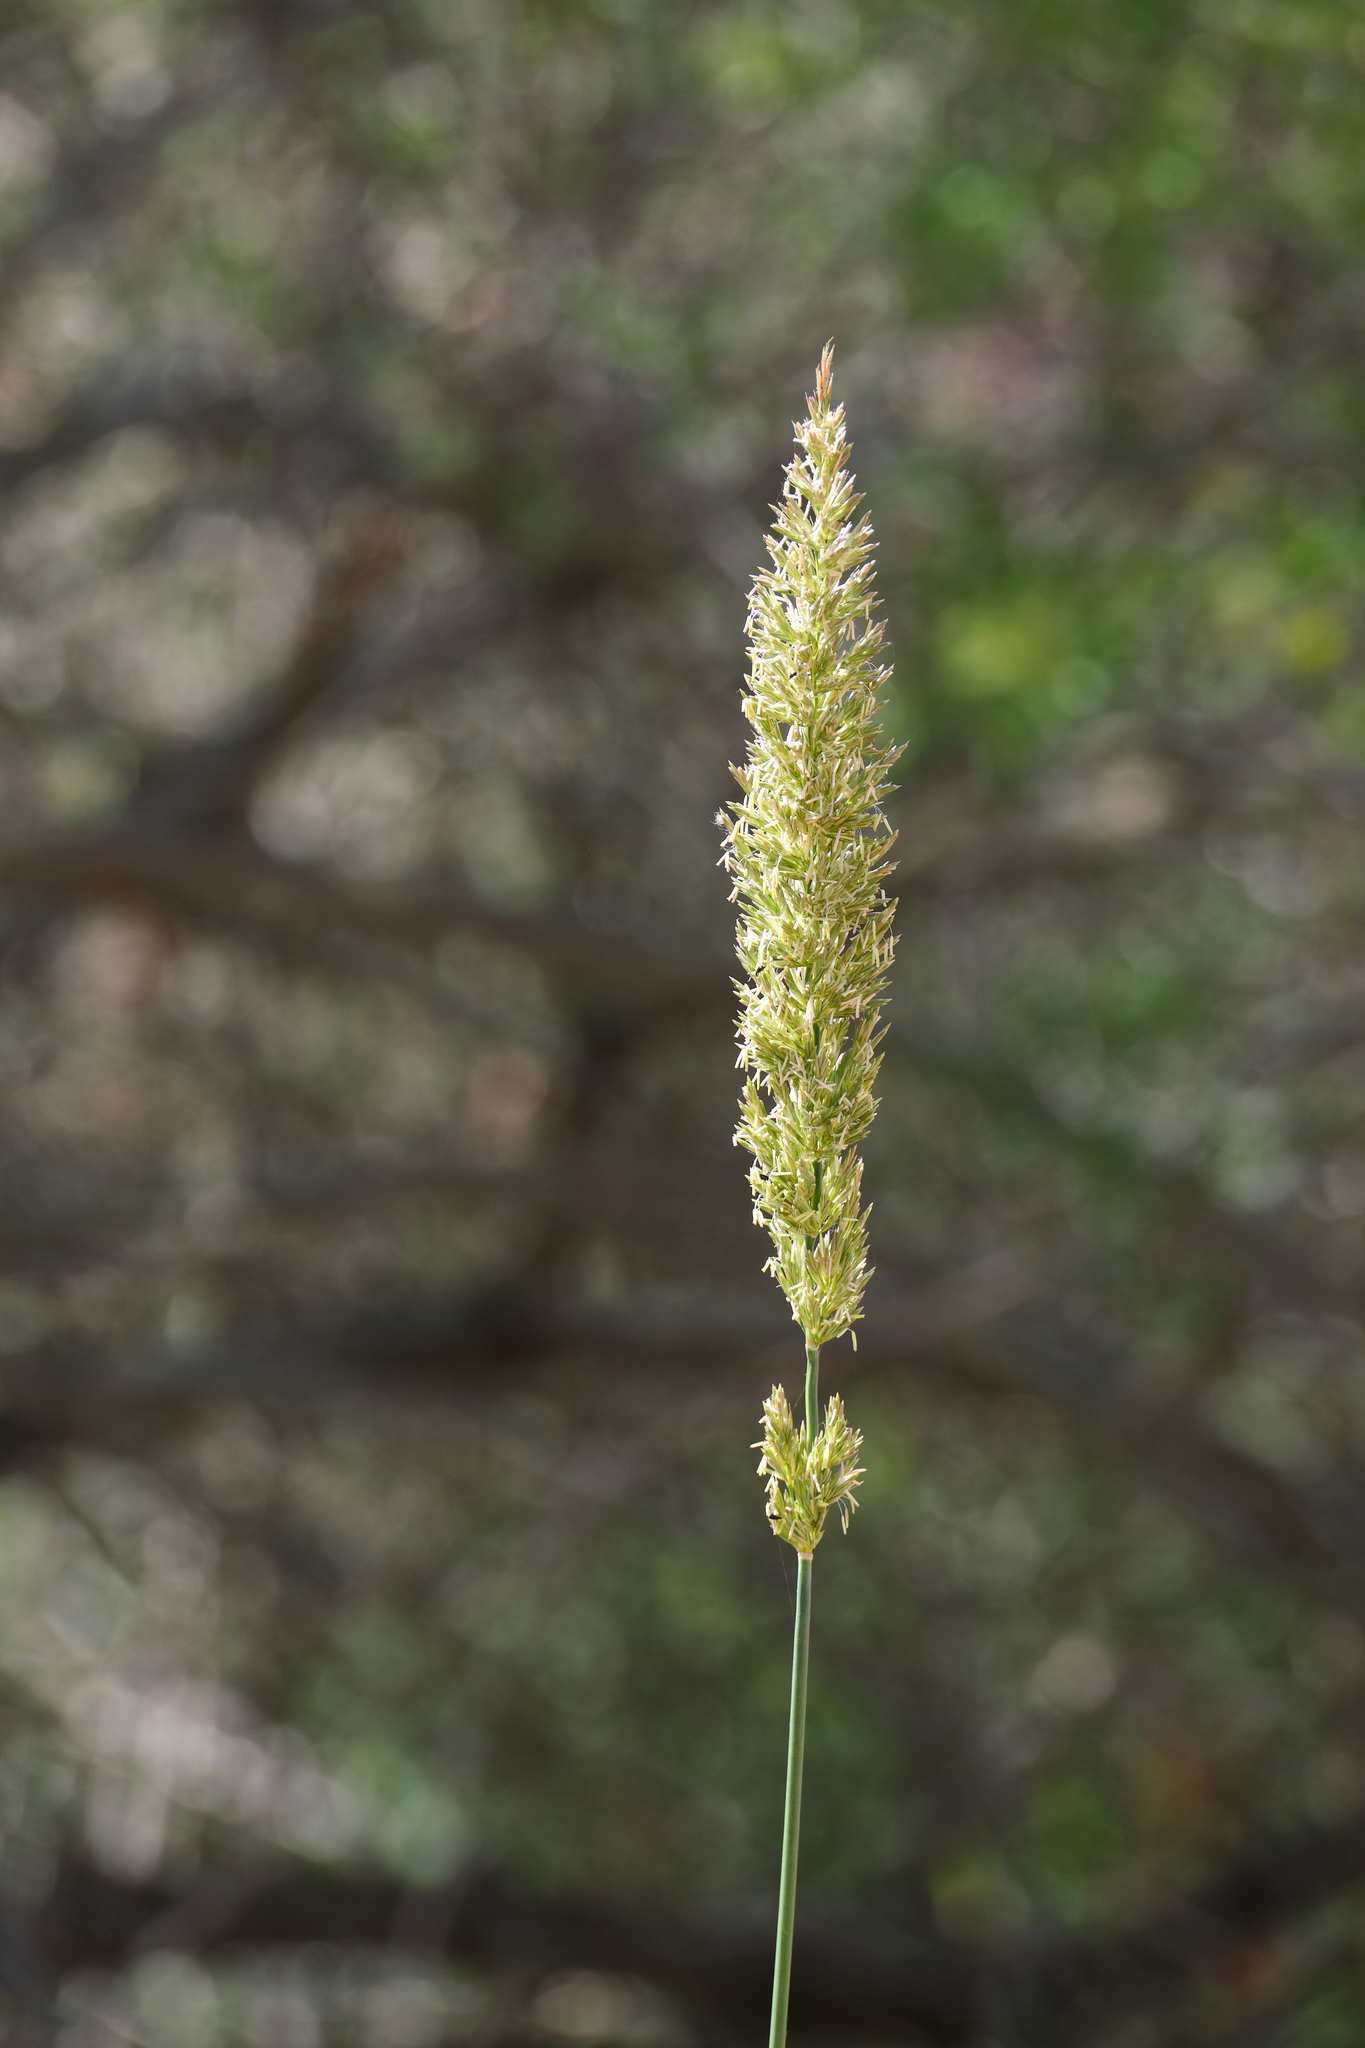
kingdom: Plantae
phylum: Tracheophyta
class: Liliopsida
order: Poales
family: Poaceae
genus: Leymus
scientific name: Leymus condensatus
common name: Giant wild rye
